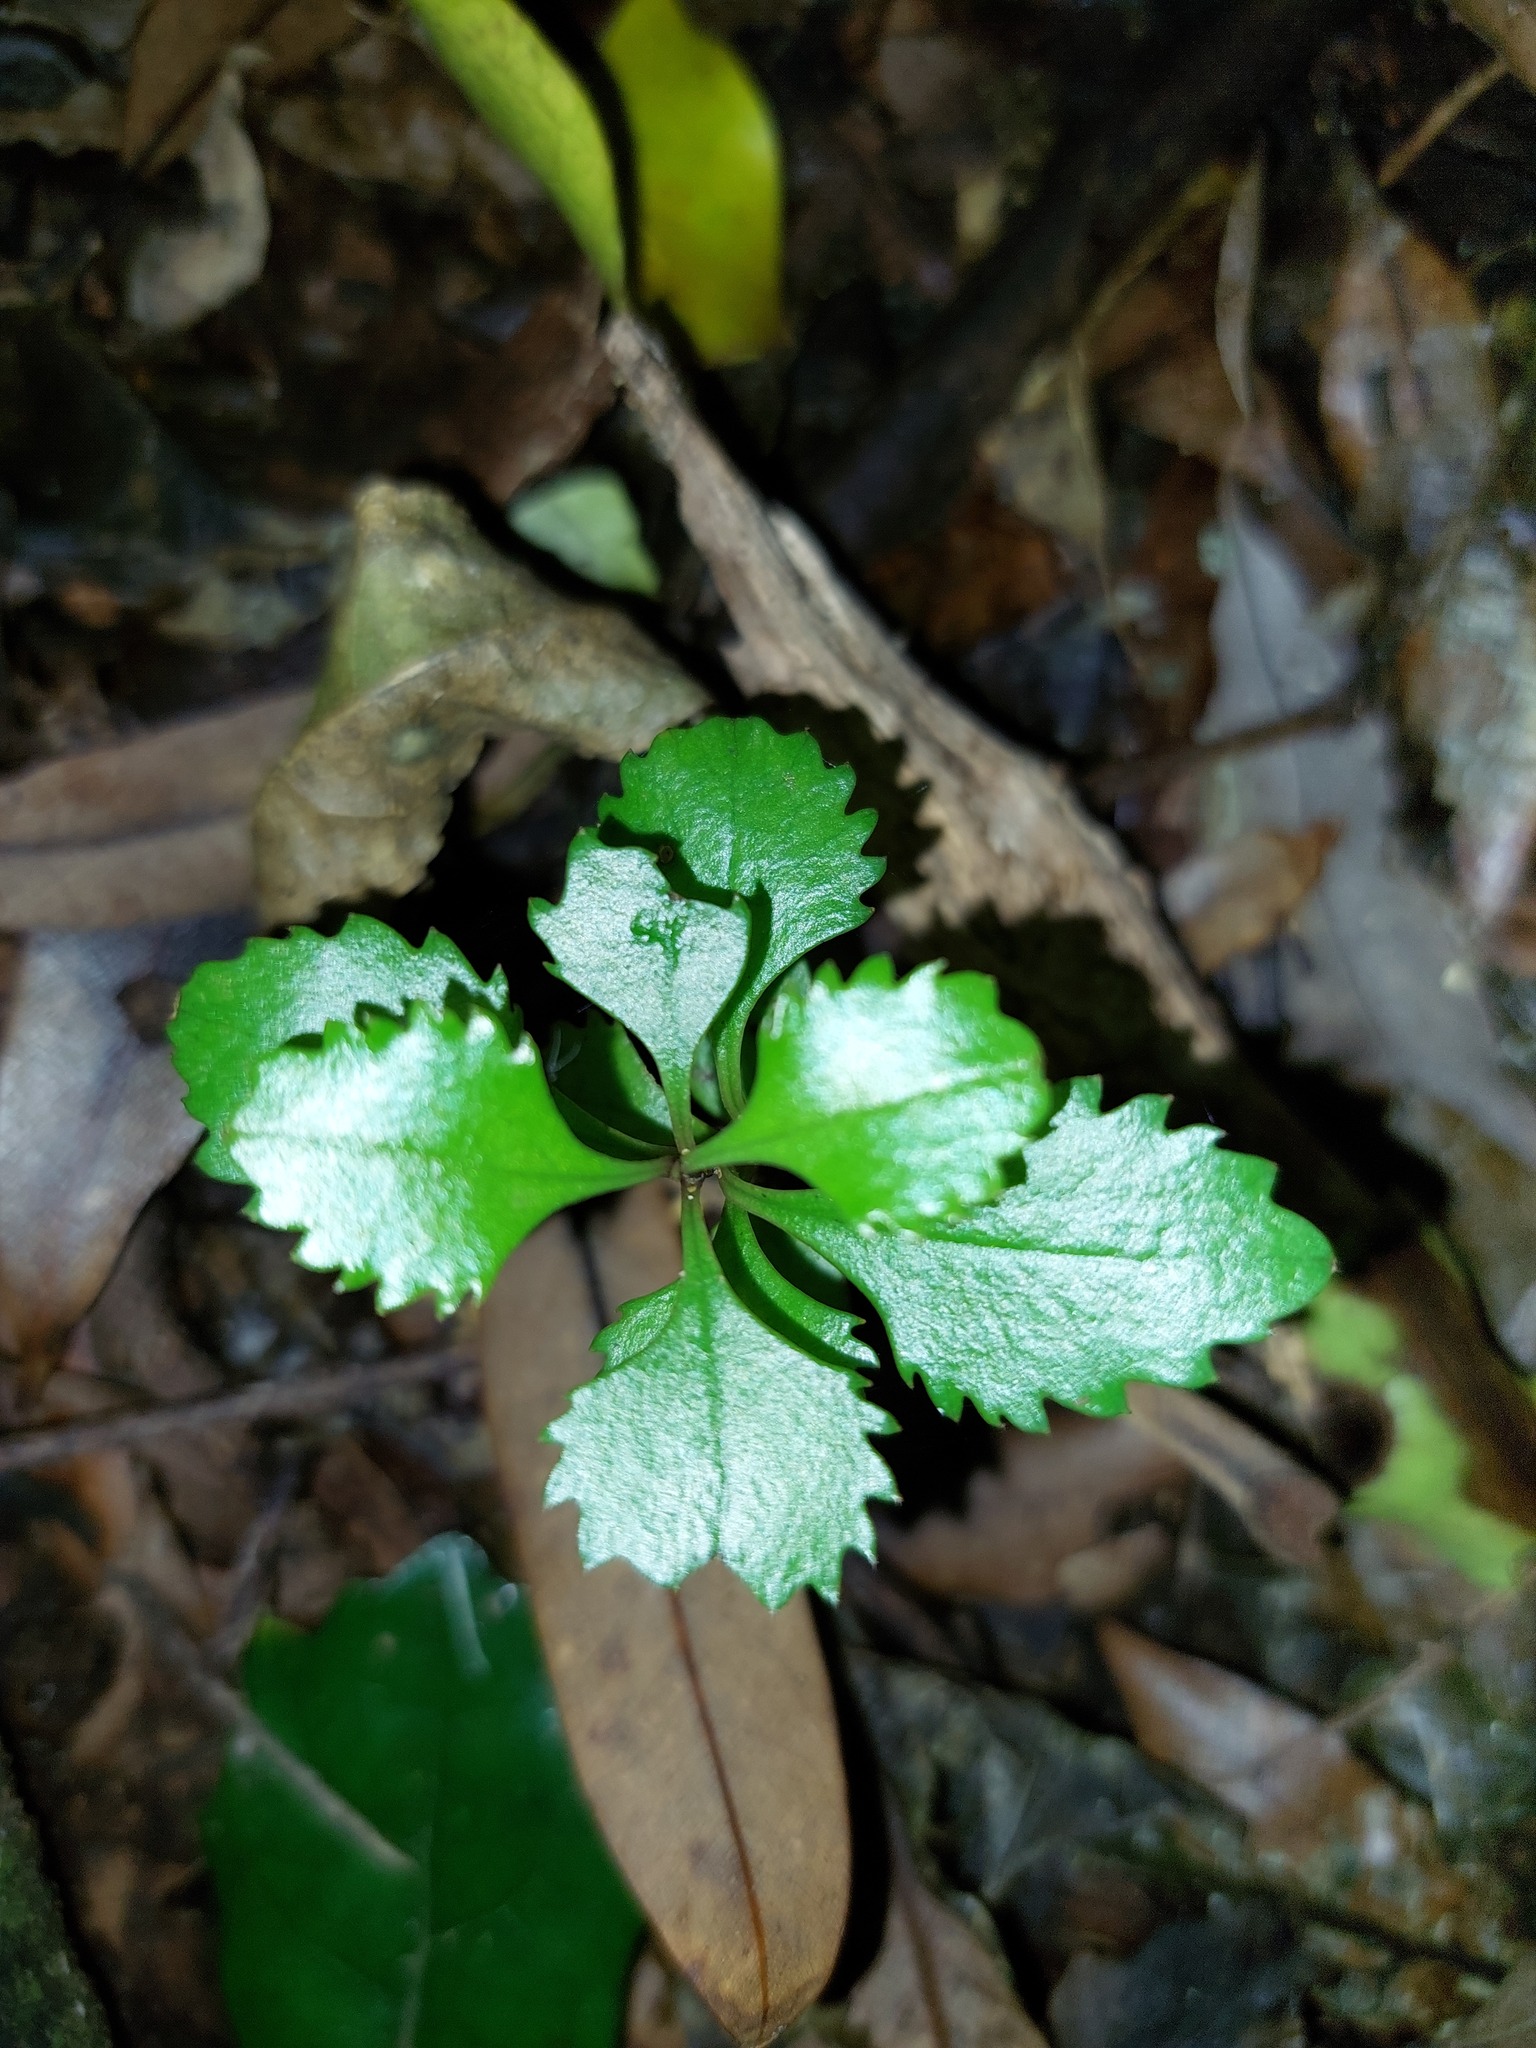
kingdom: Plantae
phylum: Tracheophyta
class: Magnoliopsida
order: Laurales
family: Atherospermataceae
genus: Laurelia
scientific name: Laurelia novae-zelandiae
